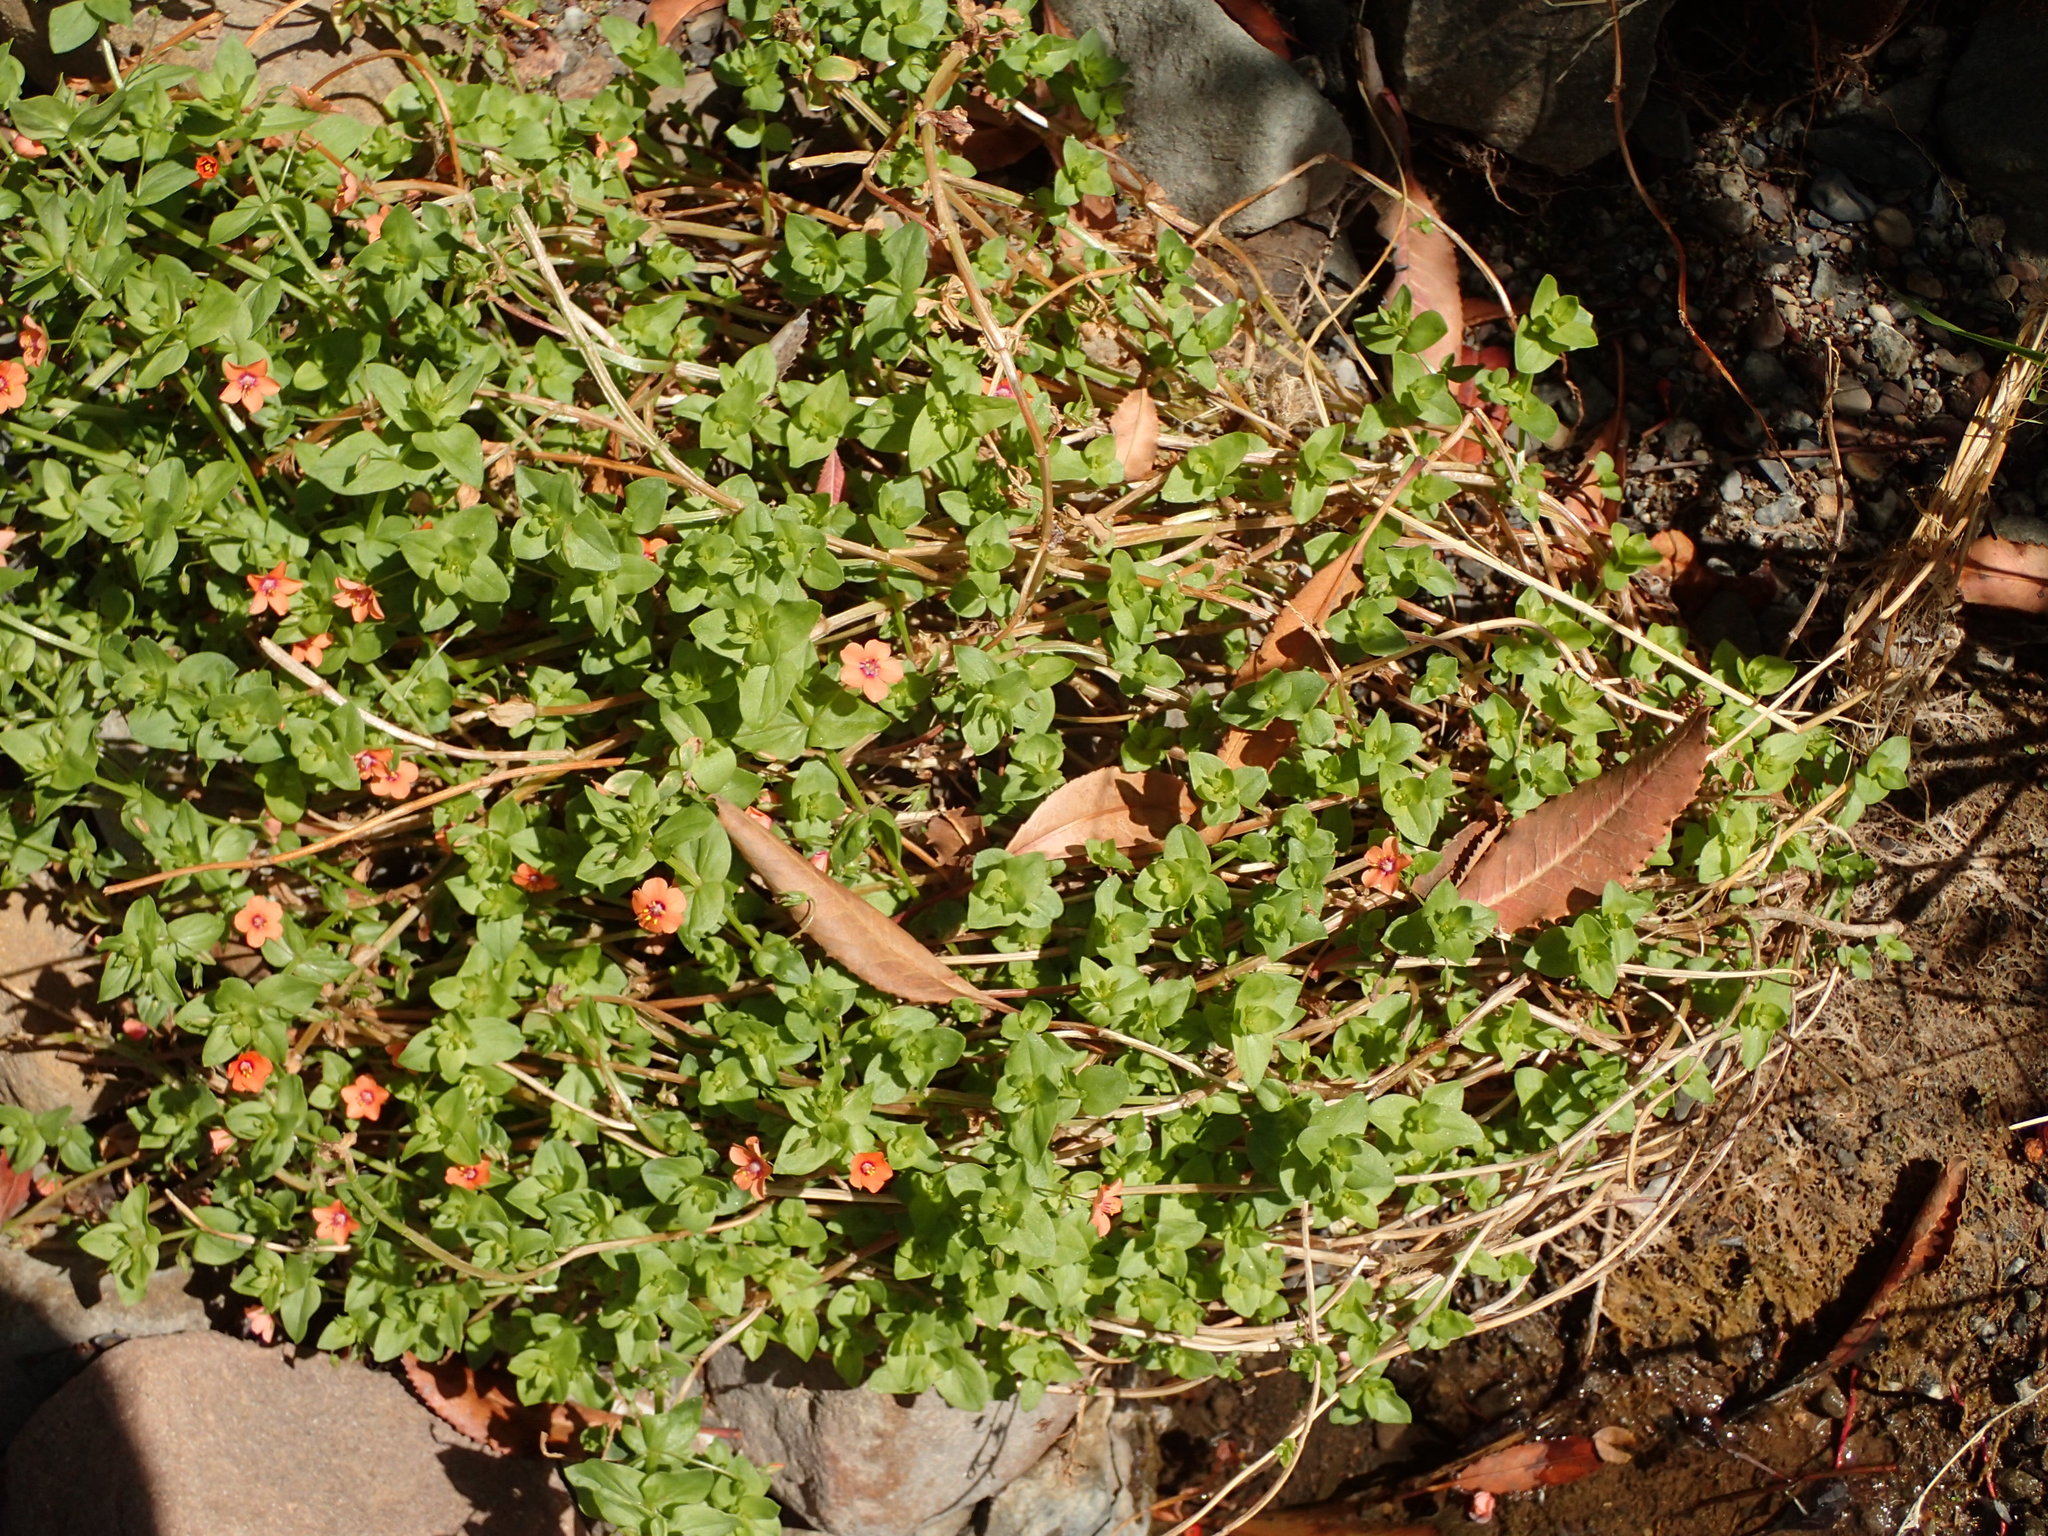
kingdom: Plantae
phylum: Tracheophyta
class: Magnoliopsida
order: Ericales
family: Primulaceae
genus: Lysimachia
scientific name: Lysimachia arvensis
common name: Scarlet pimpernel
